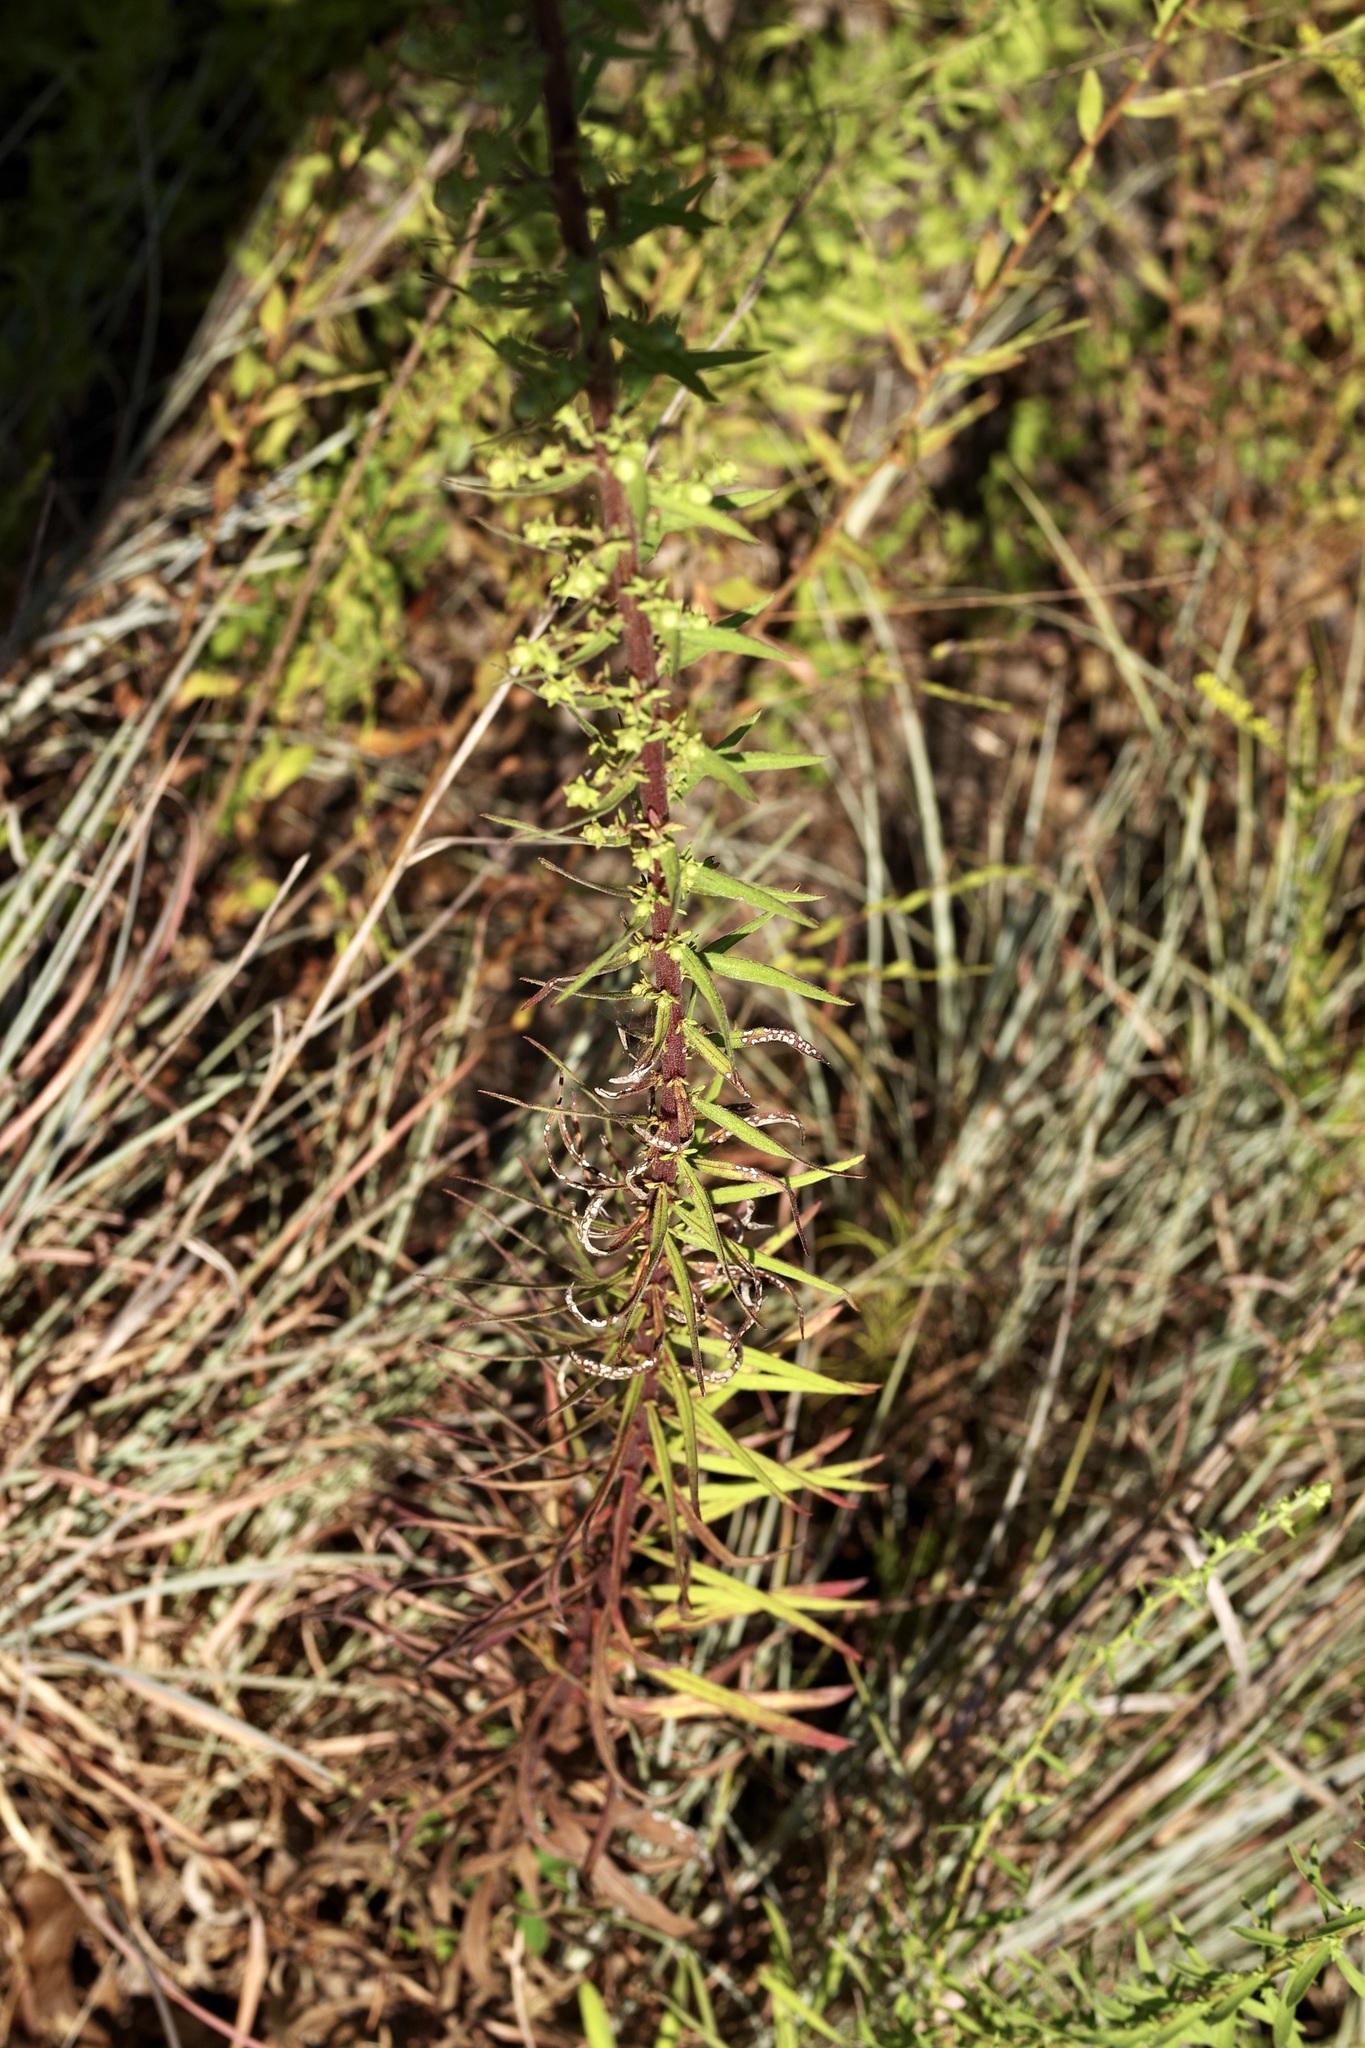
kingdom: Plantae
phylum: Tracheophyta
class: Magnoliopsida
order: Asterales
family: Asteraceae
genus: Liatris
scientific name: Liatris aspera
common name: Lacerate blazing-star
